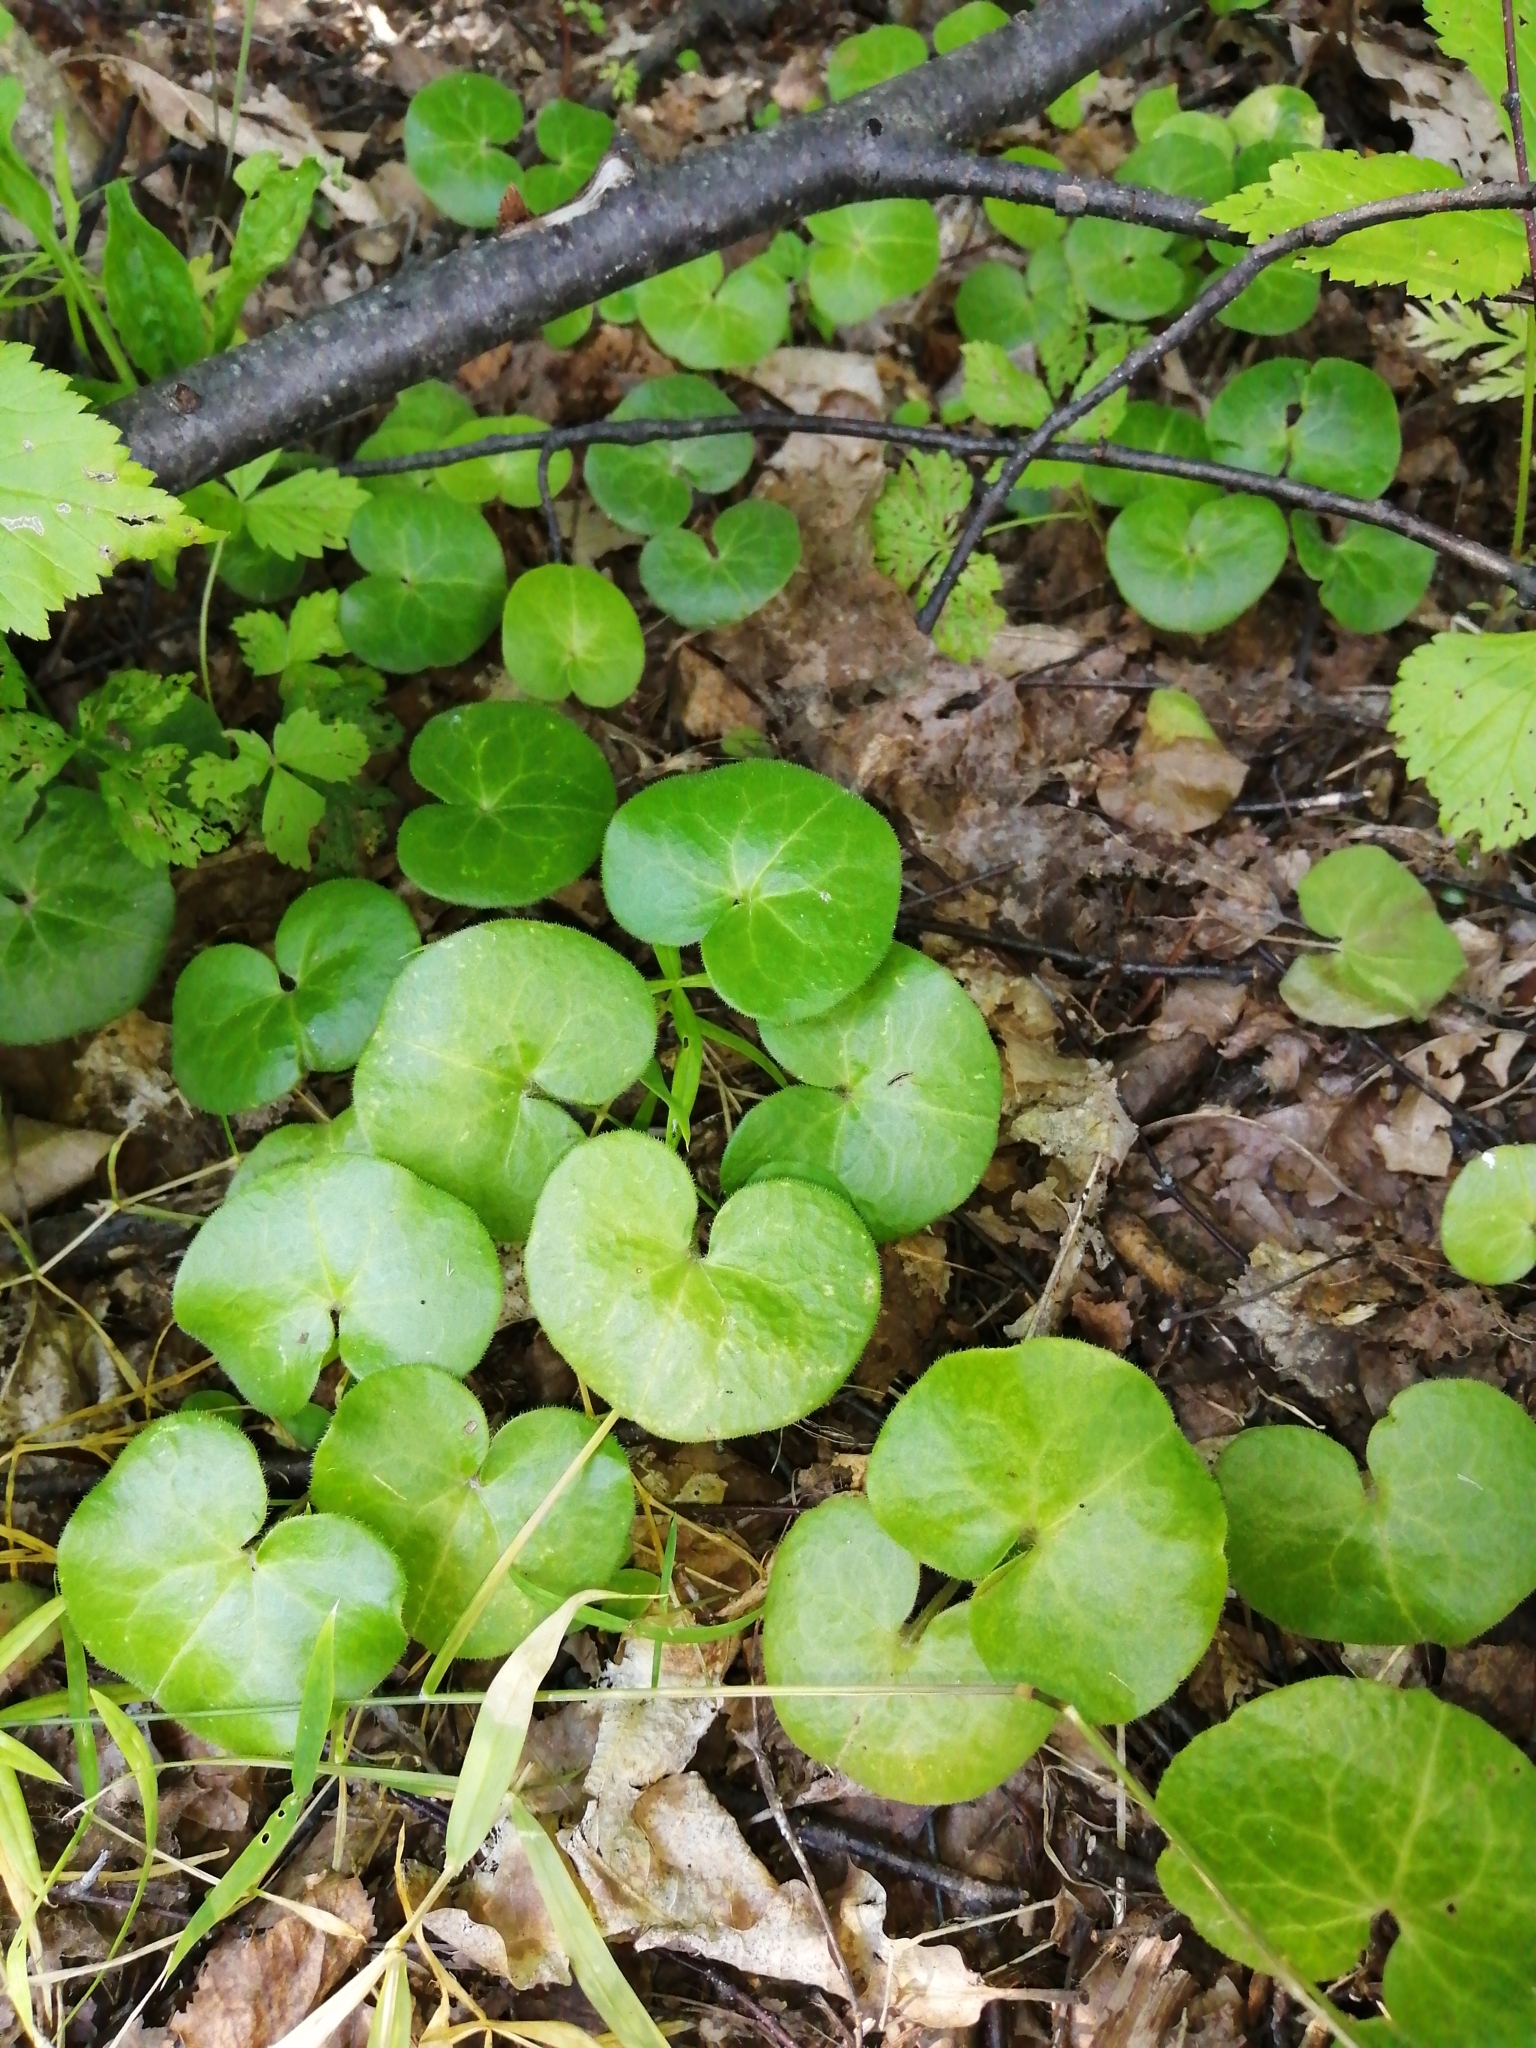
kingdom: Plantae
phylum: Tracheophyta
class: Magnoliopsida
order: Piperales
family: Aristolochiaceae
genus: Asarum
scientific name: Asarum europaeum
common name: Asarabacca
